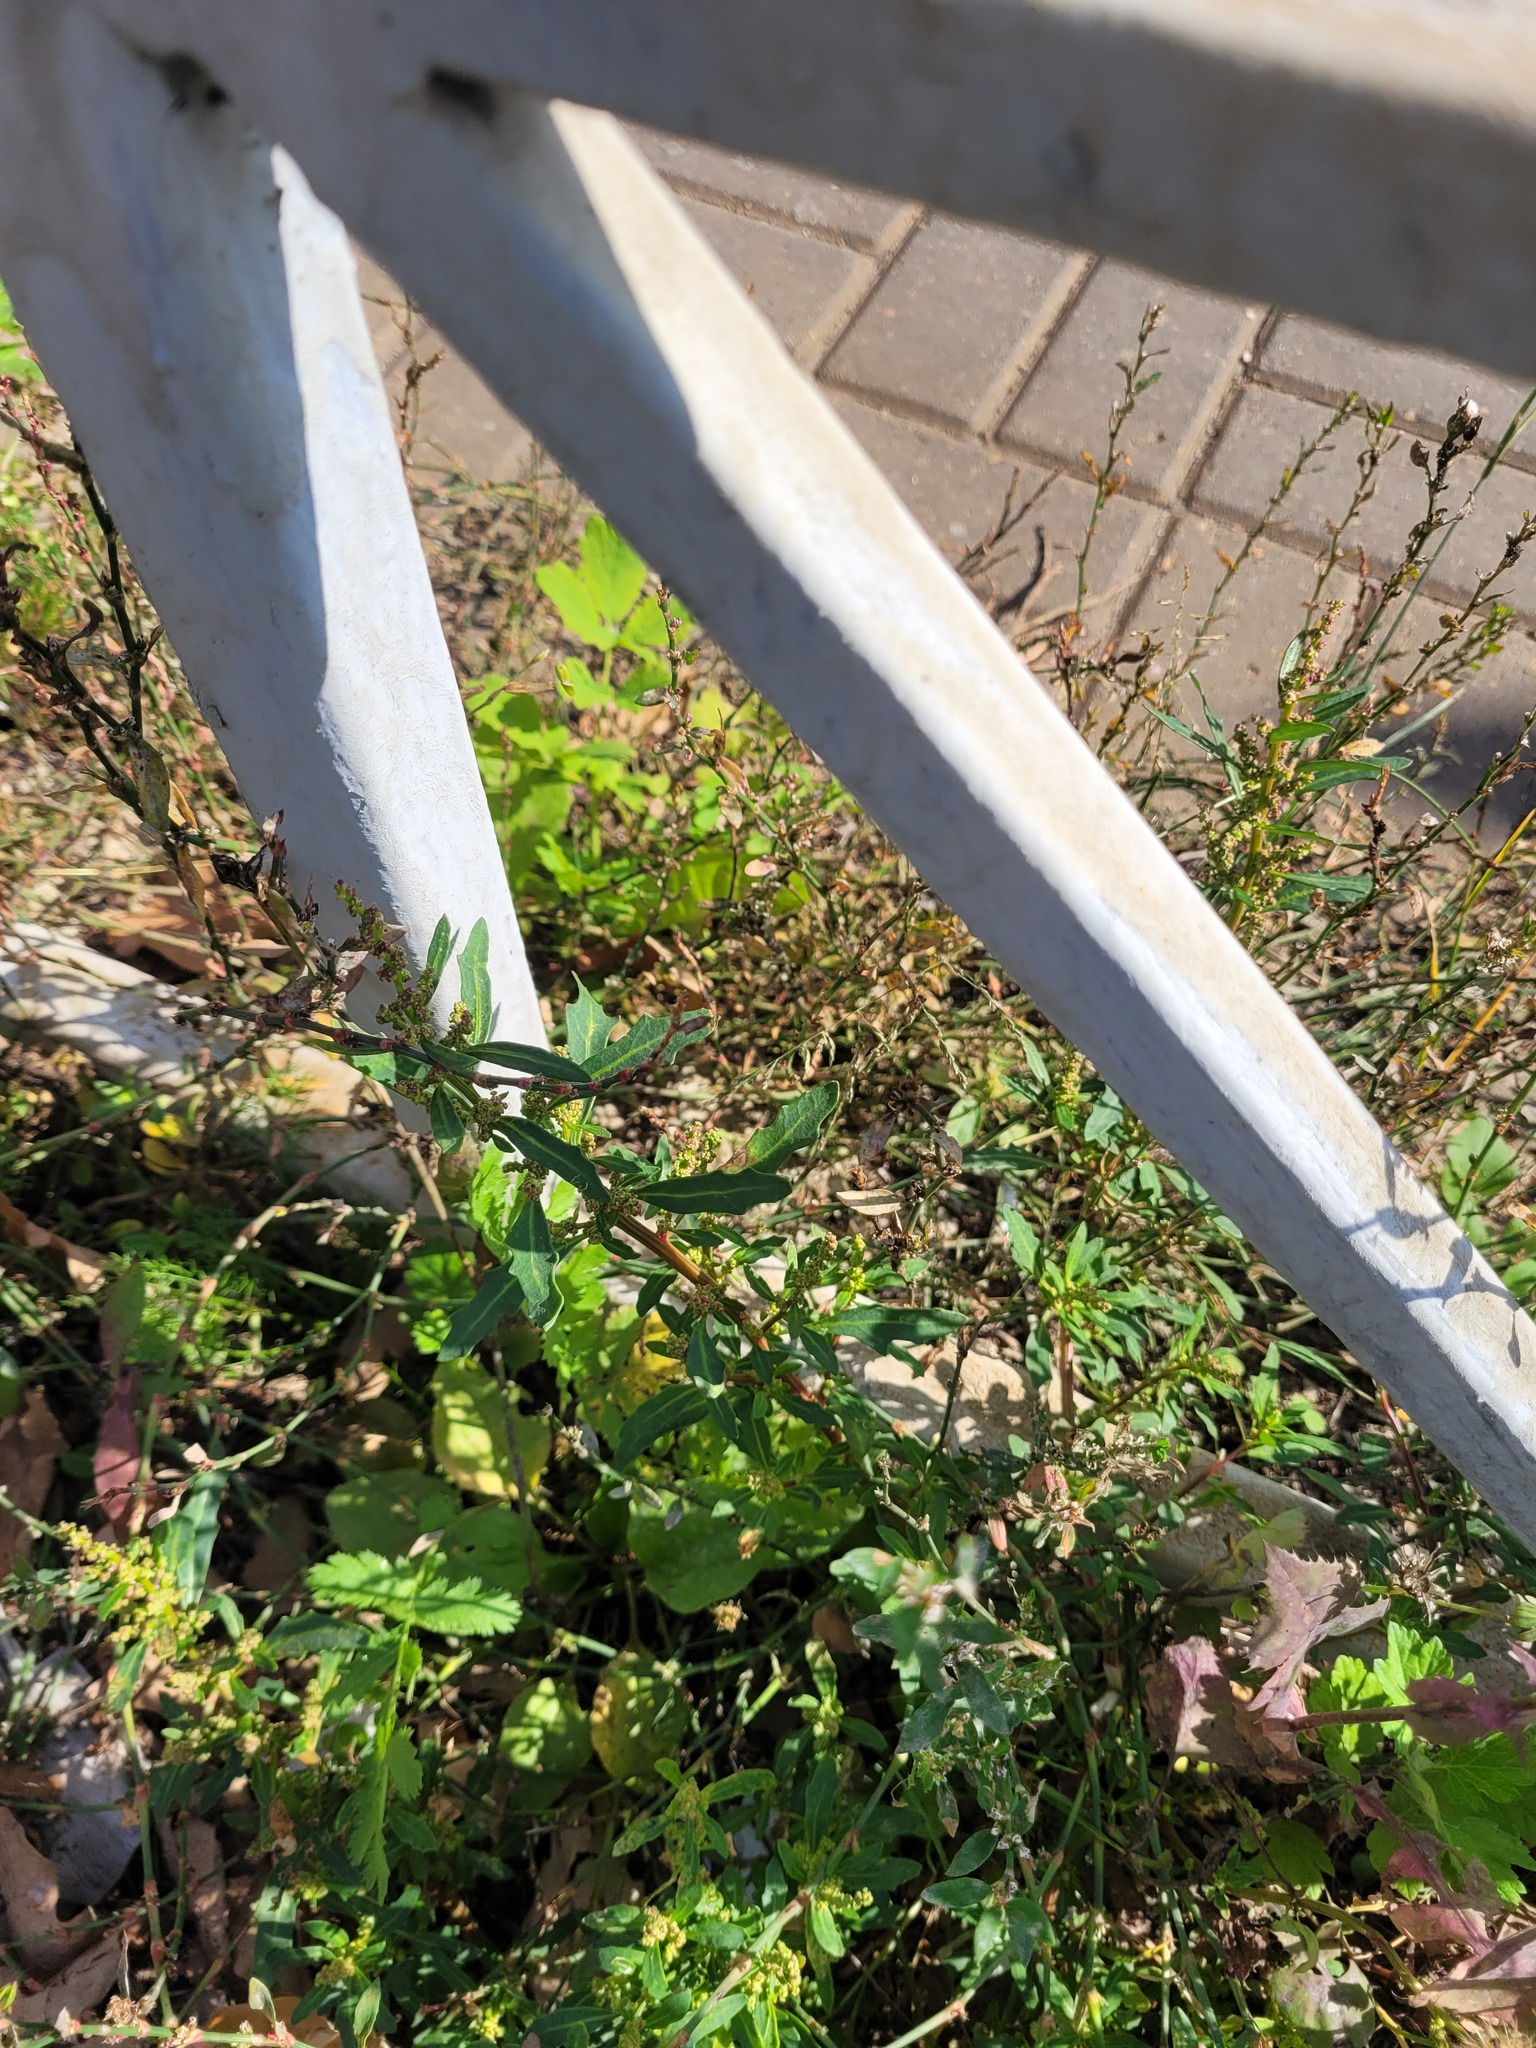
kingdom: Plantae
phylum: Tracheophyta
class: Magnoliopsida
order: Caryophyllales
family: Amaranthaceae
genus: Oxybasis
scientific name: Oxybasis glauca
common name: Glaucous goosefoot
